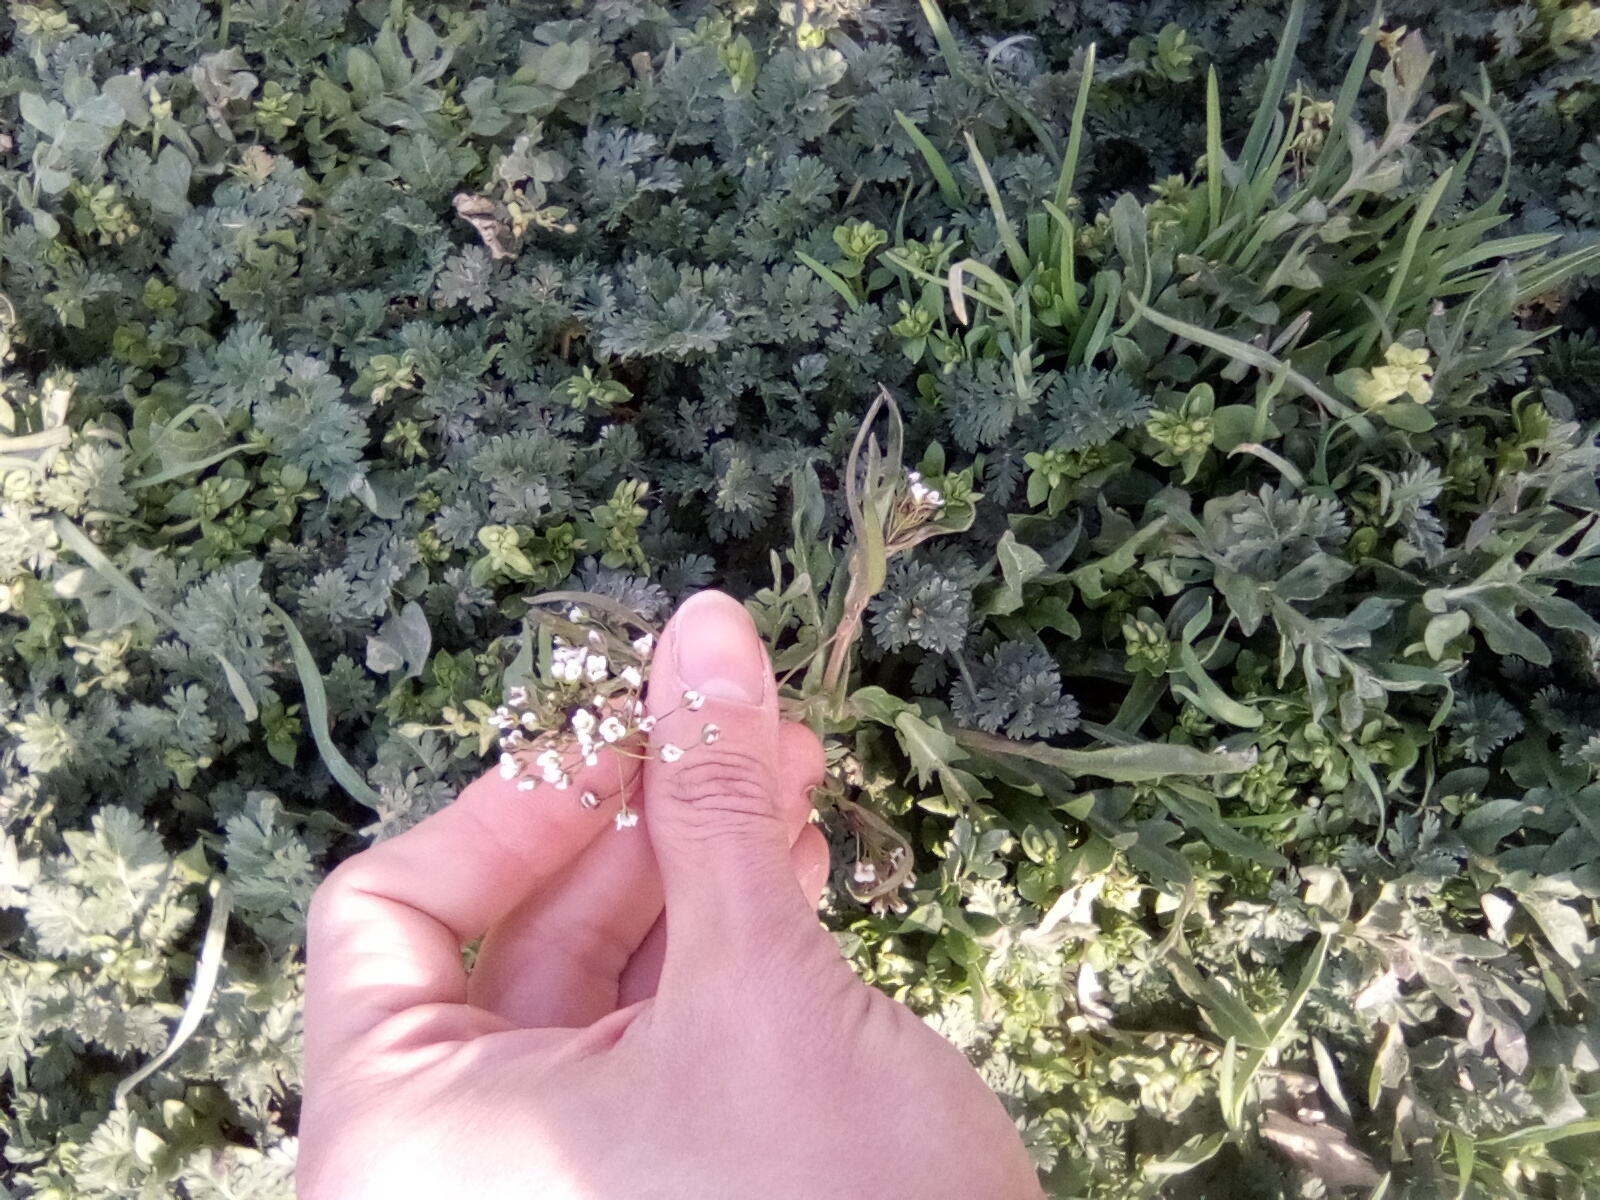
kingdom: Plantae
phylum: Tracheophyta
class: Magnoliopsida
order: Brassicales
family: Brassicaceae
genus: Capsella
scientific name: Capsella bursa-pastoris
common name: Shepherd's purse
